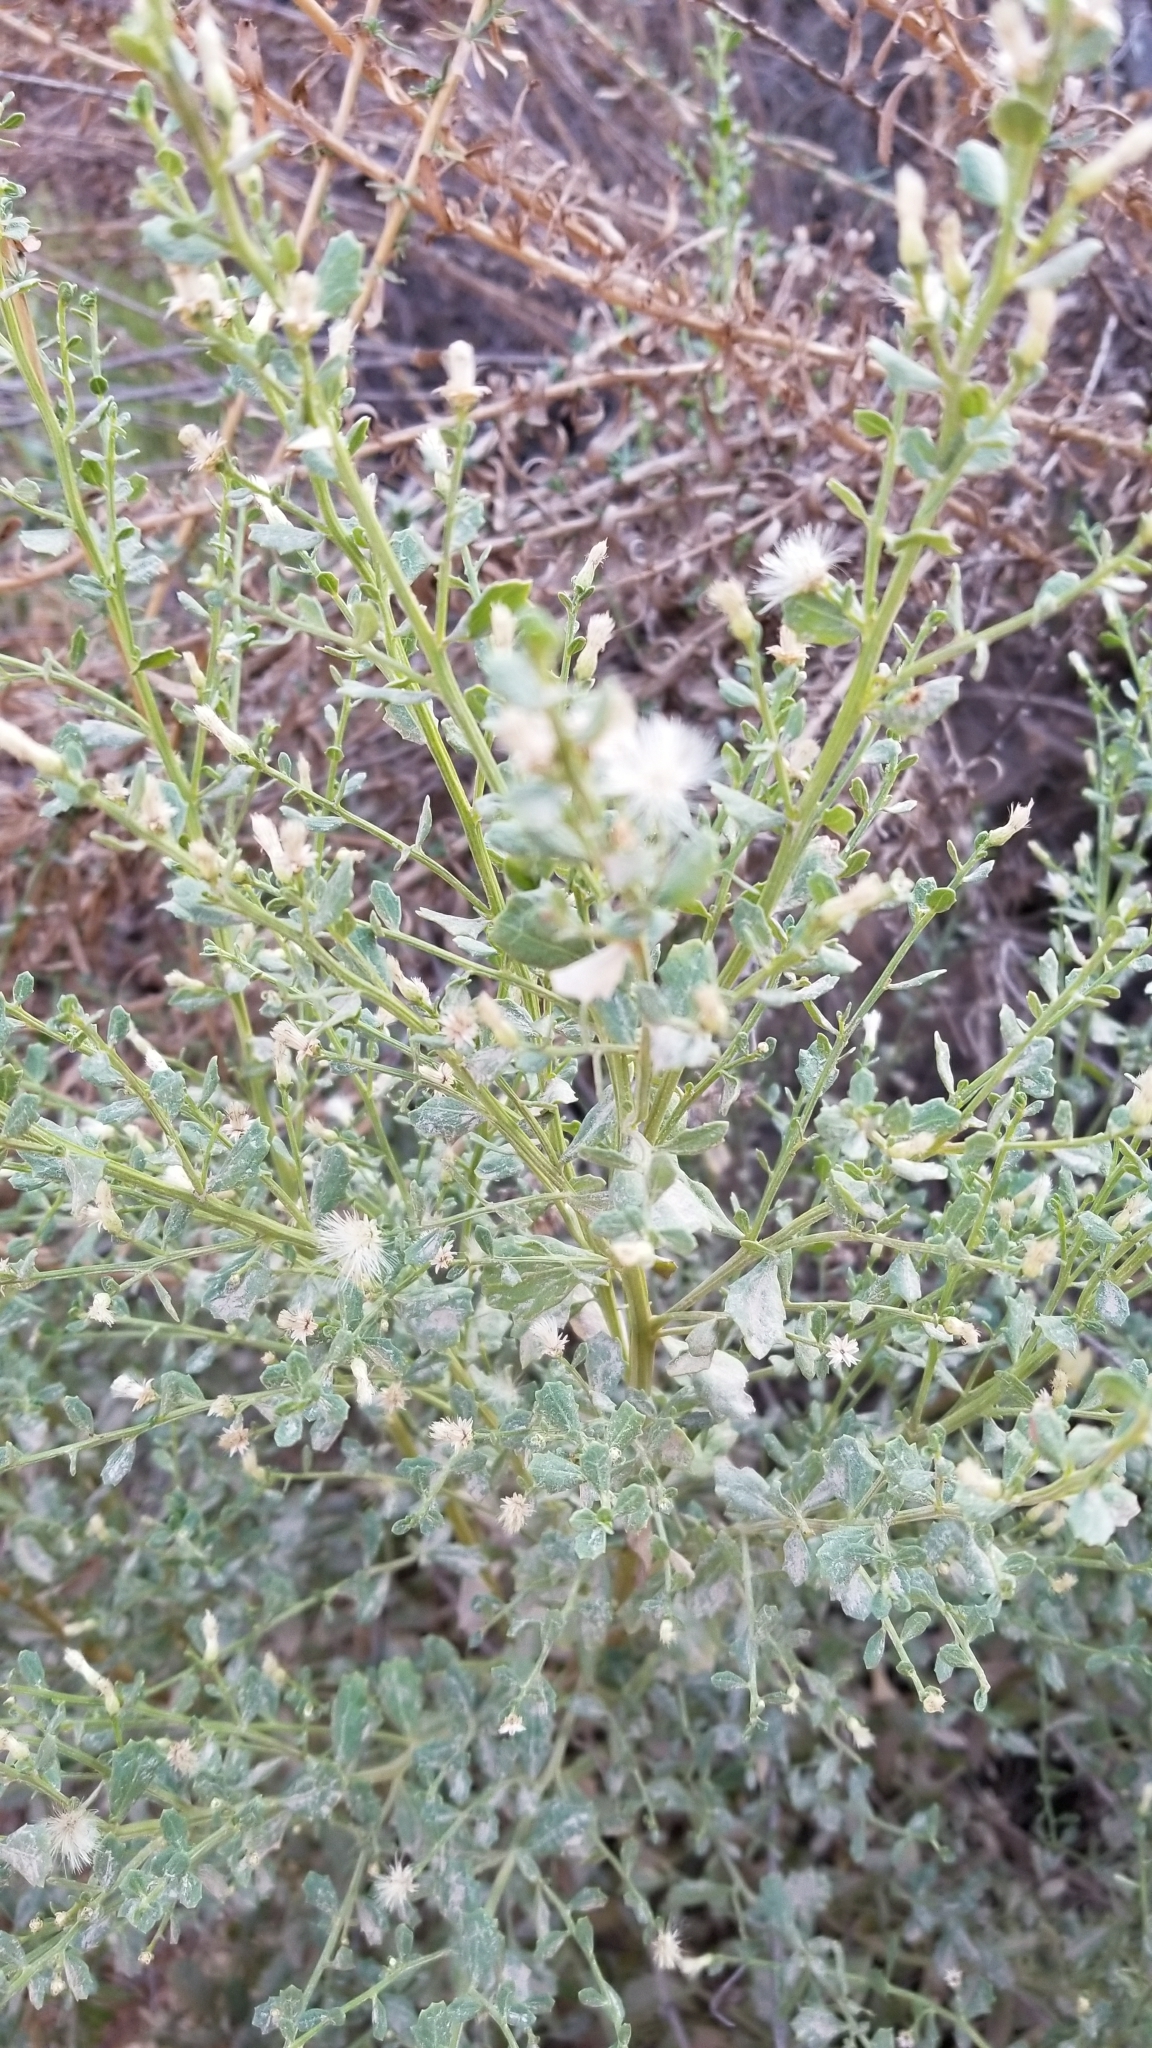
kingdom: Plantae
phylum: Tracheophyta
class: Magnoliopsida
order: Asterales
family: Asteraceae
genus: Baccharis
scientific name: Baccharis pilularis
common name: Coyotebrush
